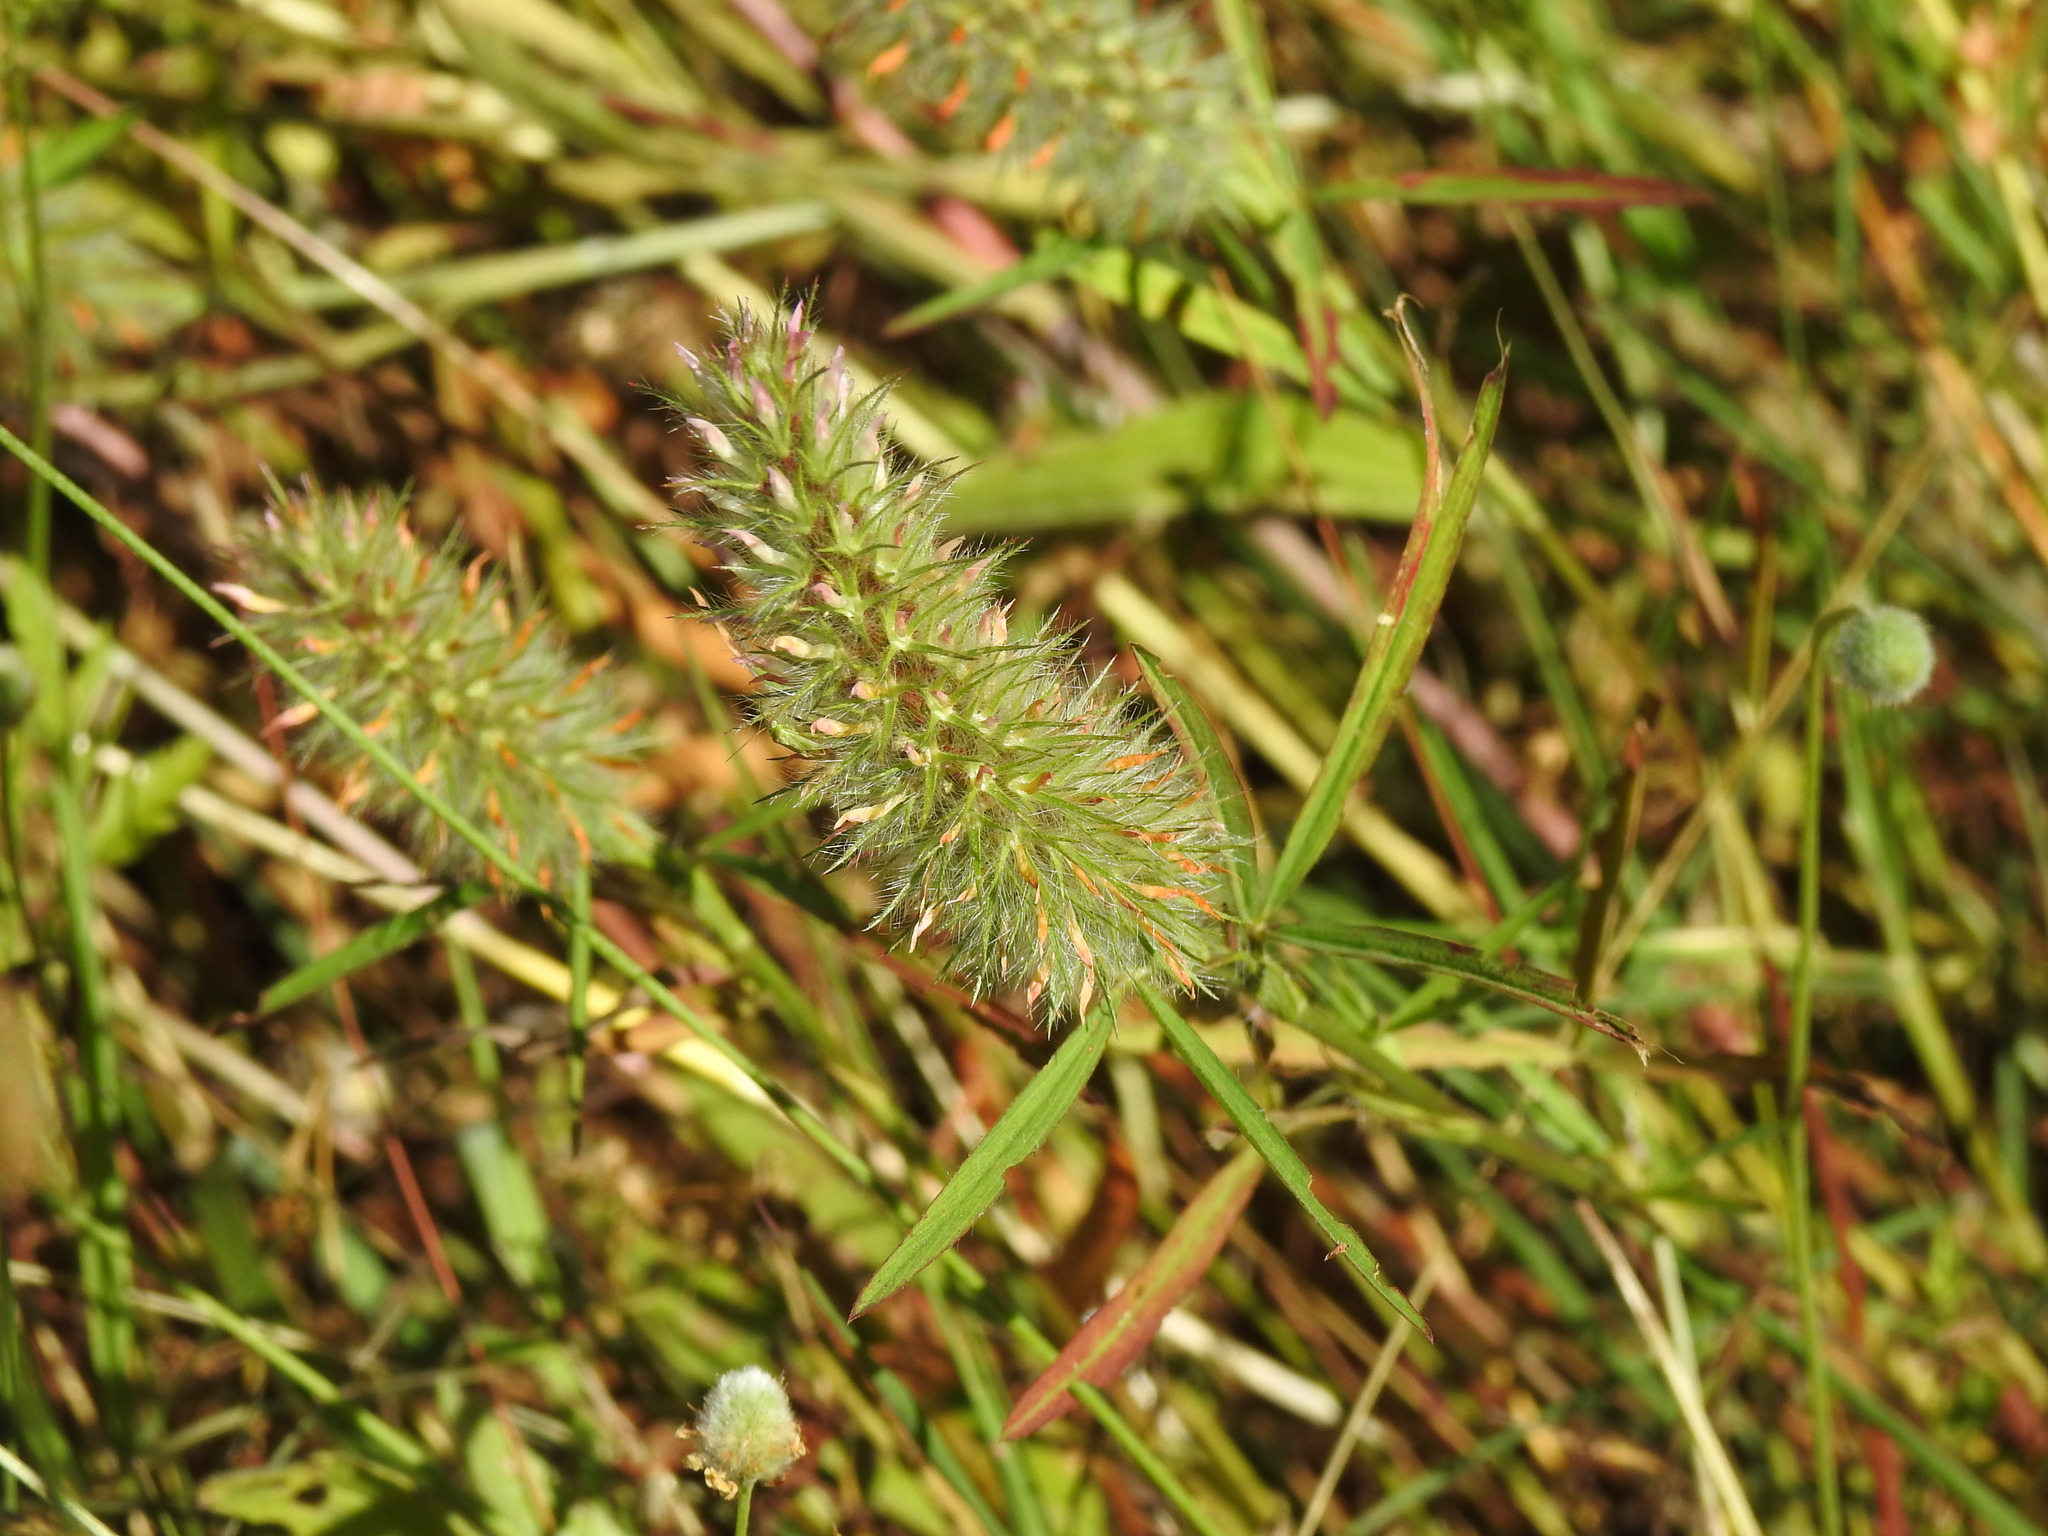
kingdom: Plantae
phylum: Tracheophyta
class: Magnoliopsida
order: Fabales
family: Fabaceae
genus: Trifolium
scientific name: Trifolium angustifolium
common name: Narrow clover
